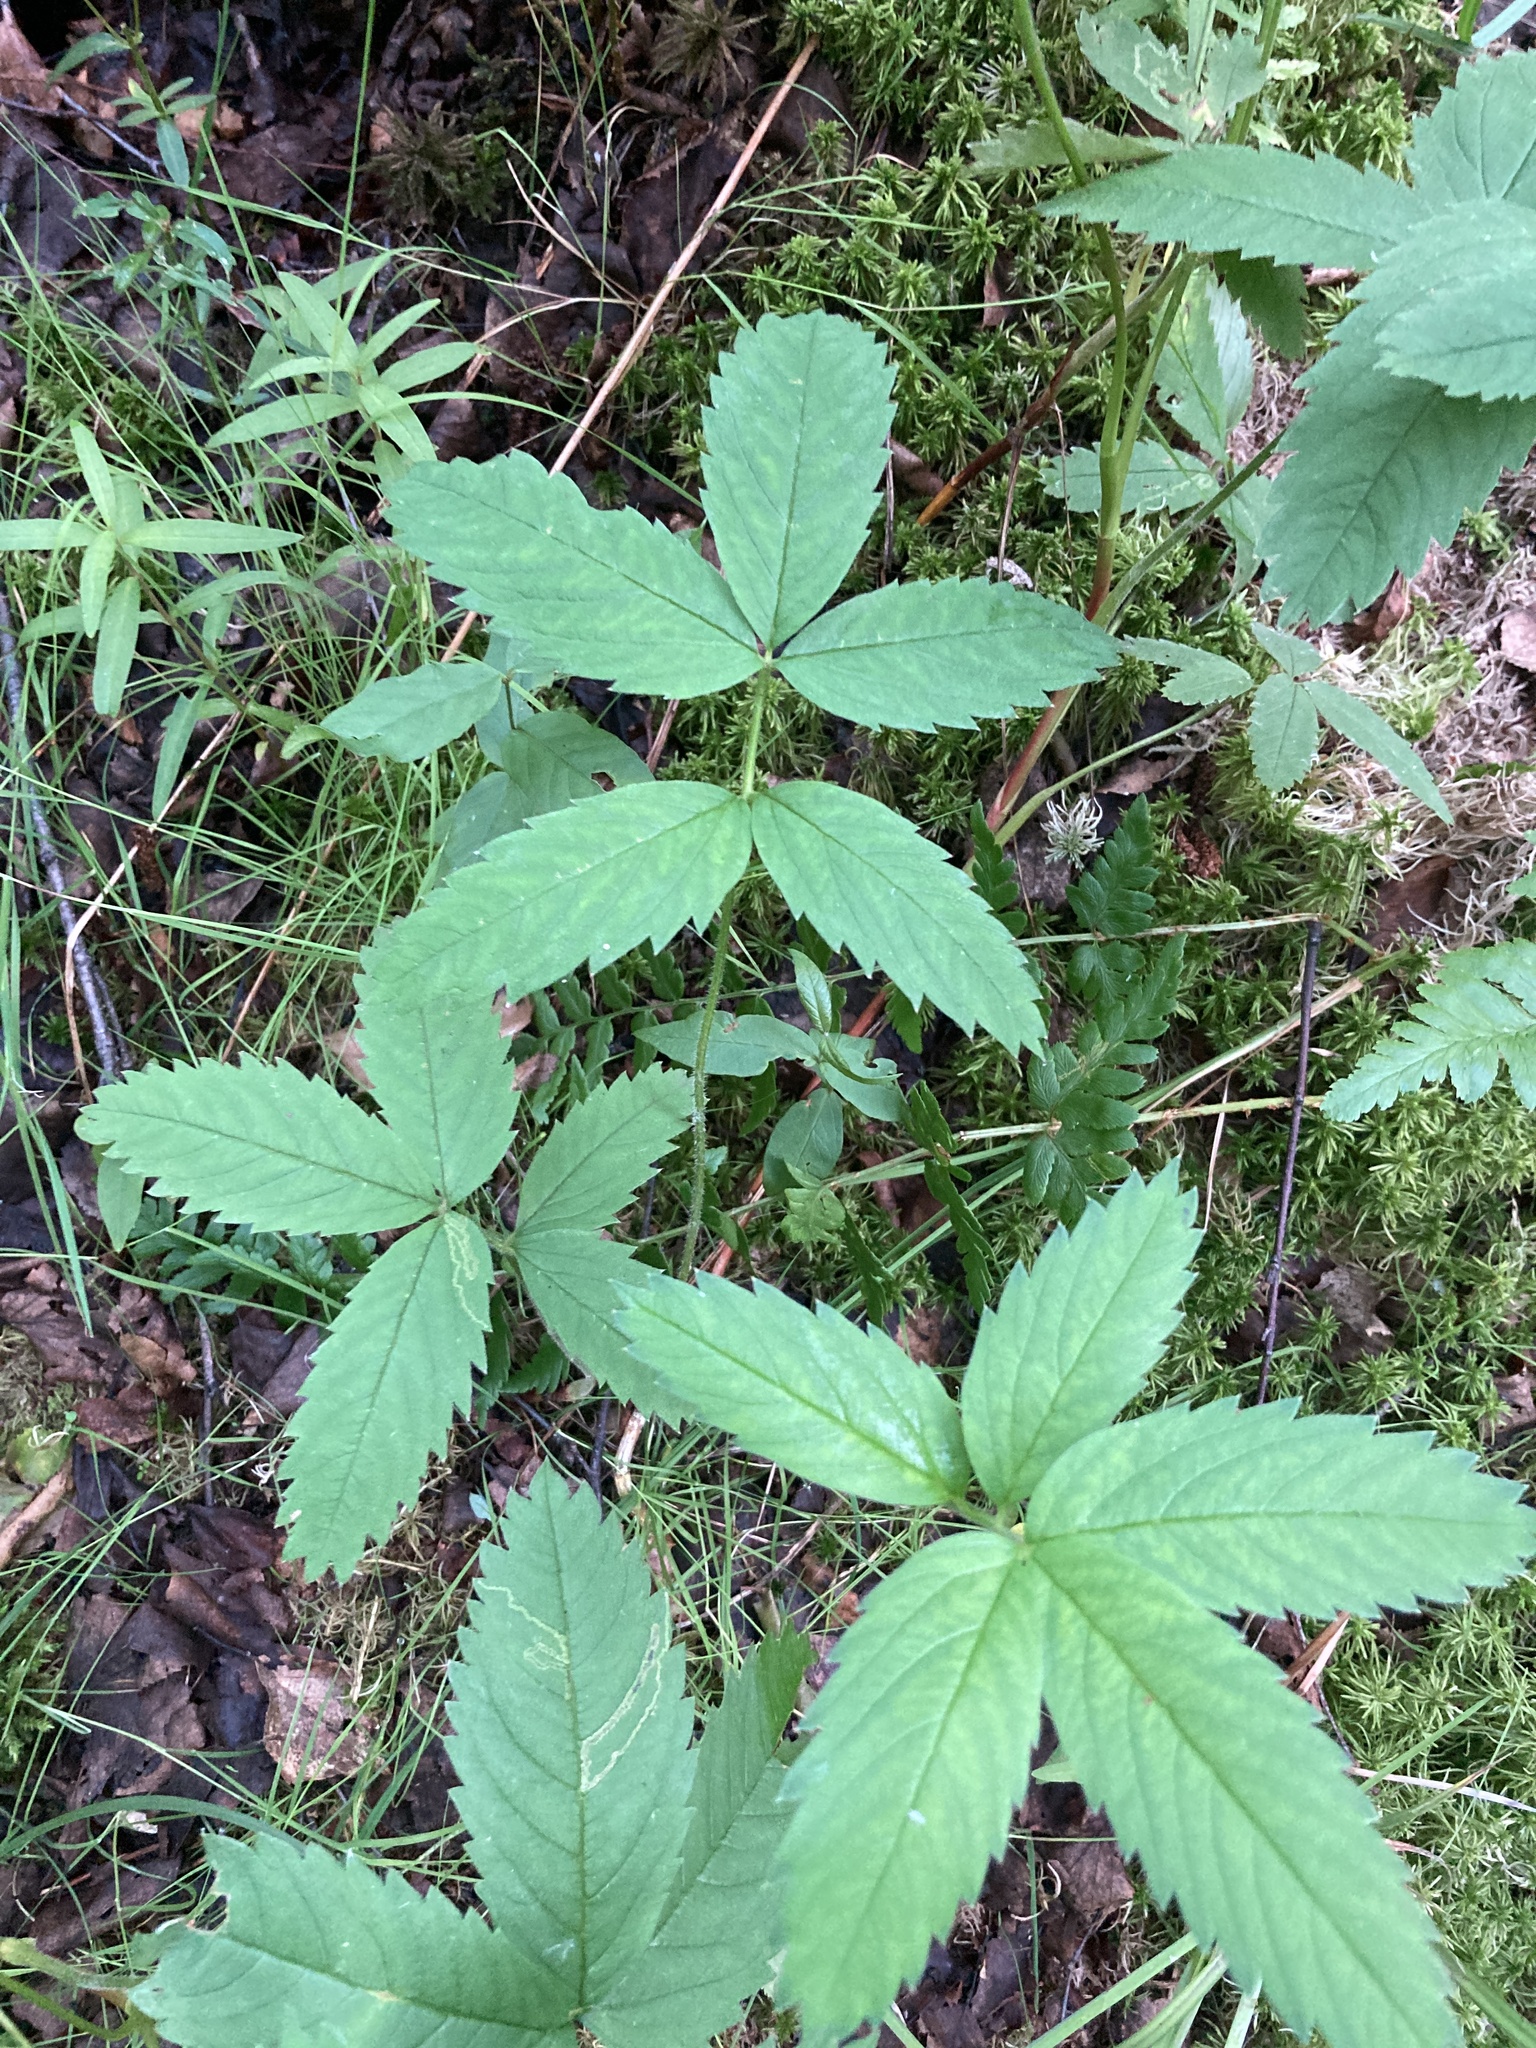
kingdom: Plantae
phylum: Tracheophyta
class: Magnoliopsida
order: Rosales
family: Rosaceae
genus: Comarum
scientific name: Comarum palustre
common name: Marsh cinquefoil
